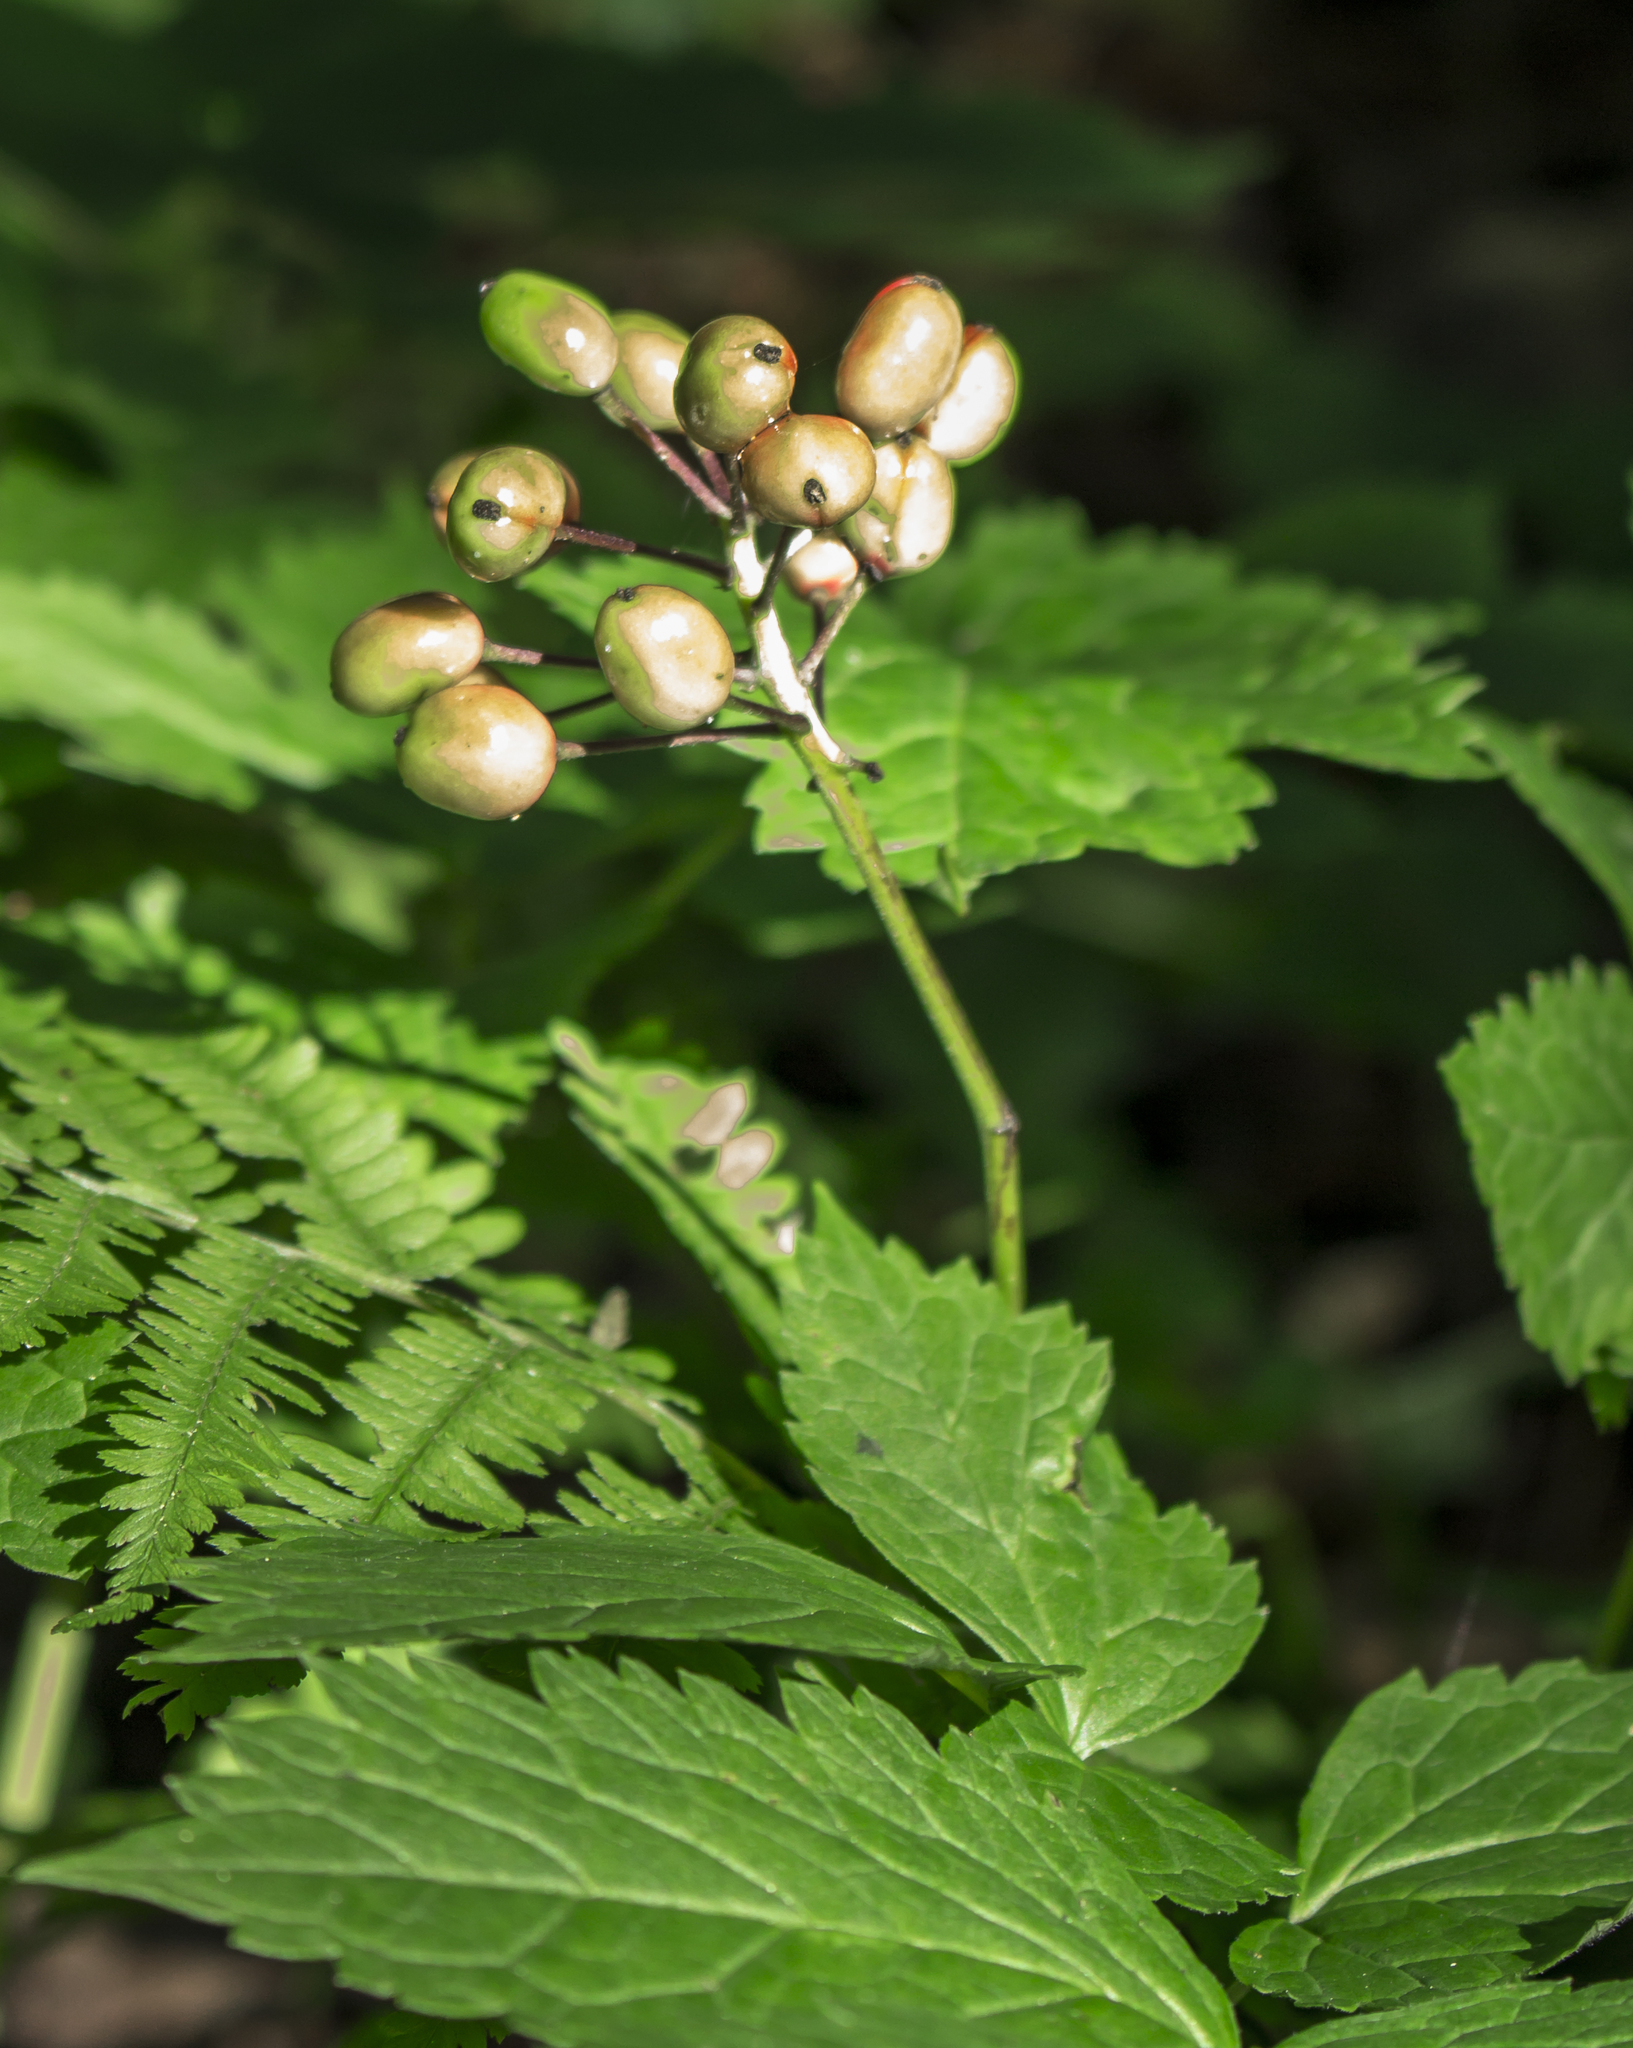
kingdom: Plantae
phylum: Tracheophyta
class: Magnoliopsida
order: Ranunculales
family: Ranunculaceae
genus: Actaea
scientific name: Actaea rubra
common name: Red baneberry
